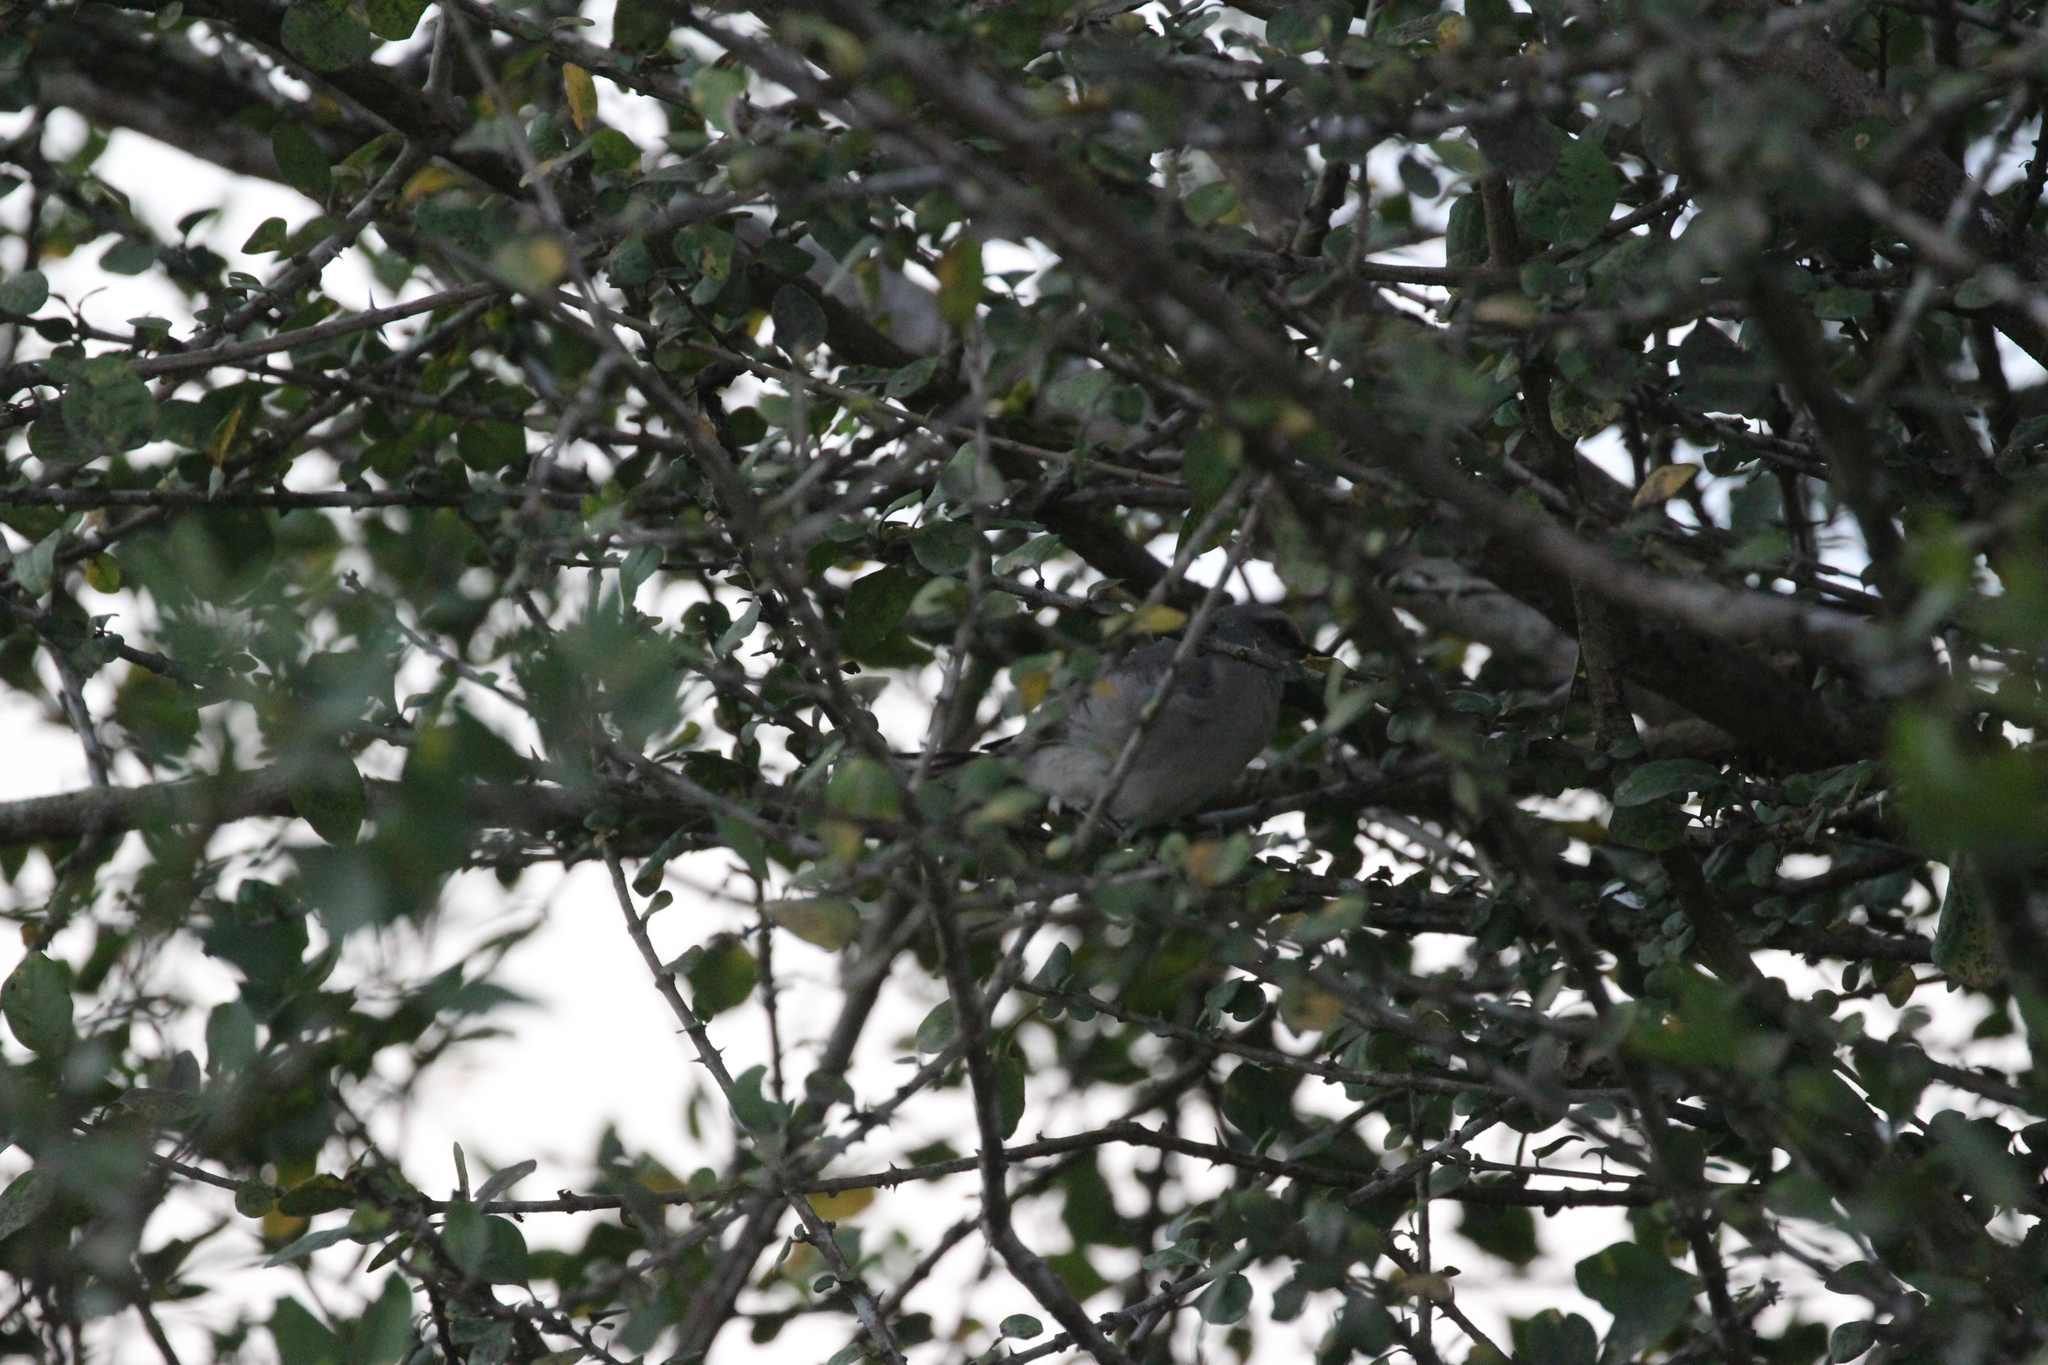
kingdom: Animalia
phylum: Chordata
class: Aves
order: Passeriformes
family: Mimidae
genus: Mimus
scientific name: Mimus gilvus
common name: Tropical mockingbird
